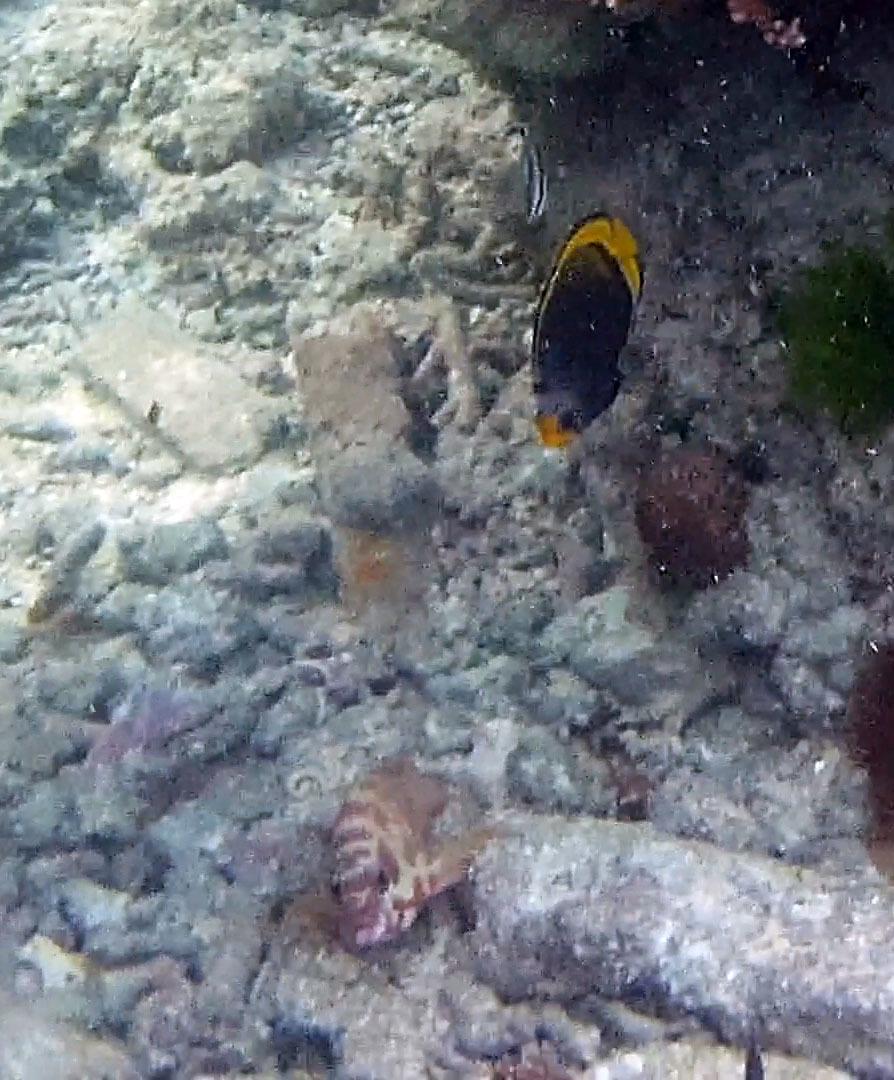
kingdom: Animalia
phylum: Chordata
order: Perciformes
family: Serranidae
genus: Epinephelus
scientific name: Epinephelus fasciatus
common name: Blacktip grouper
